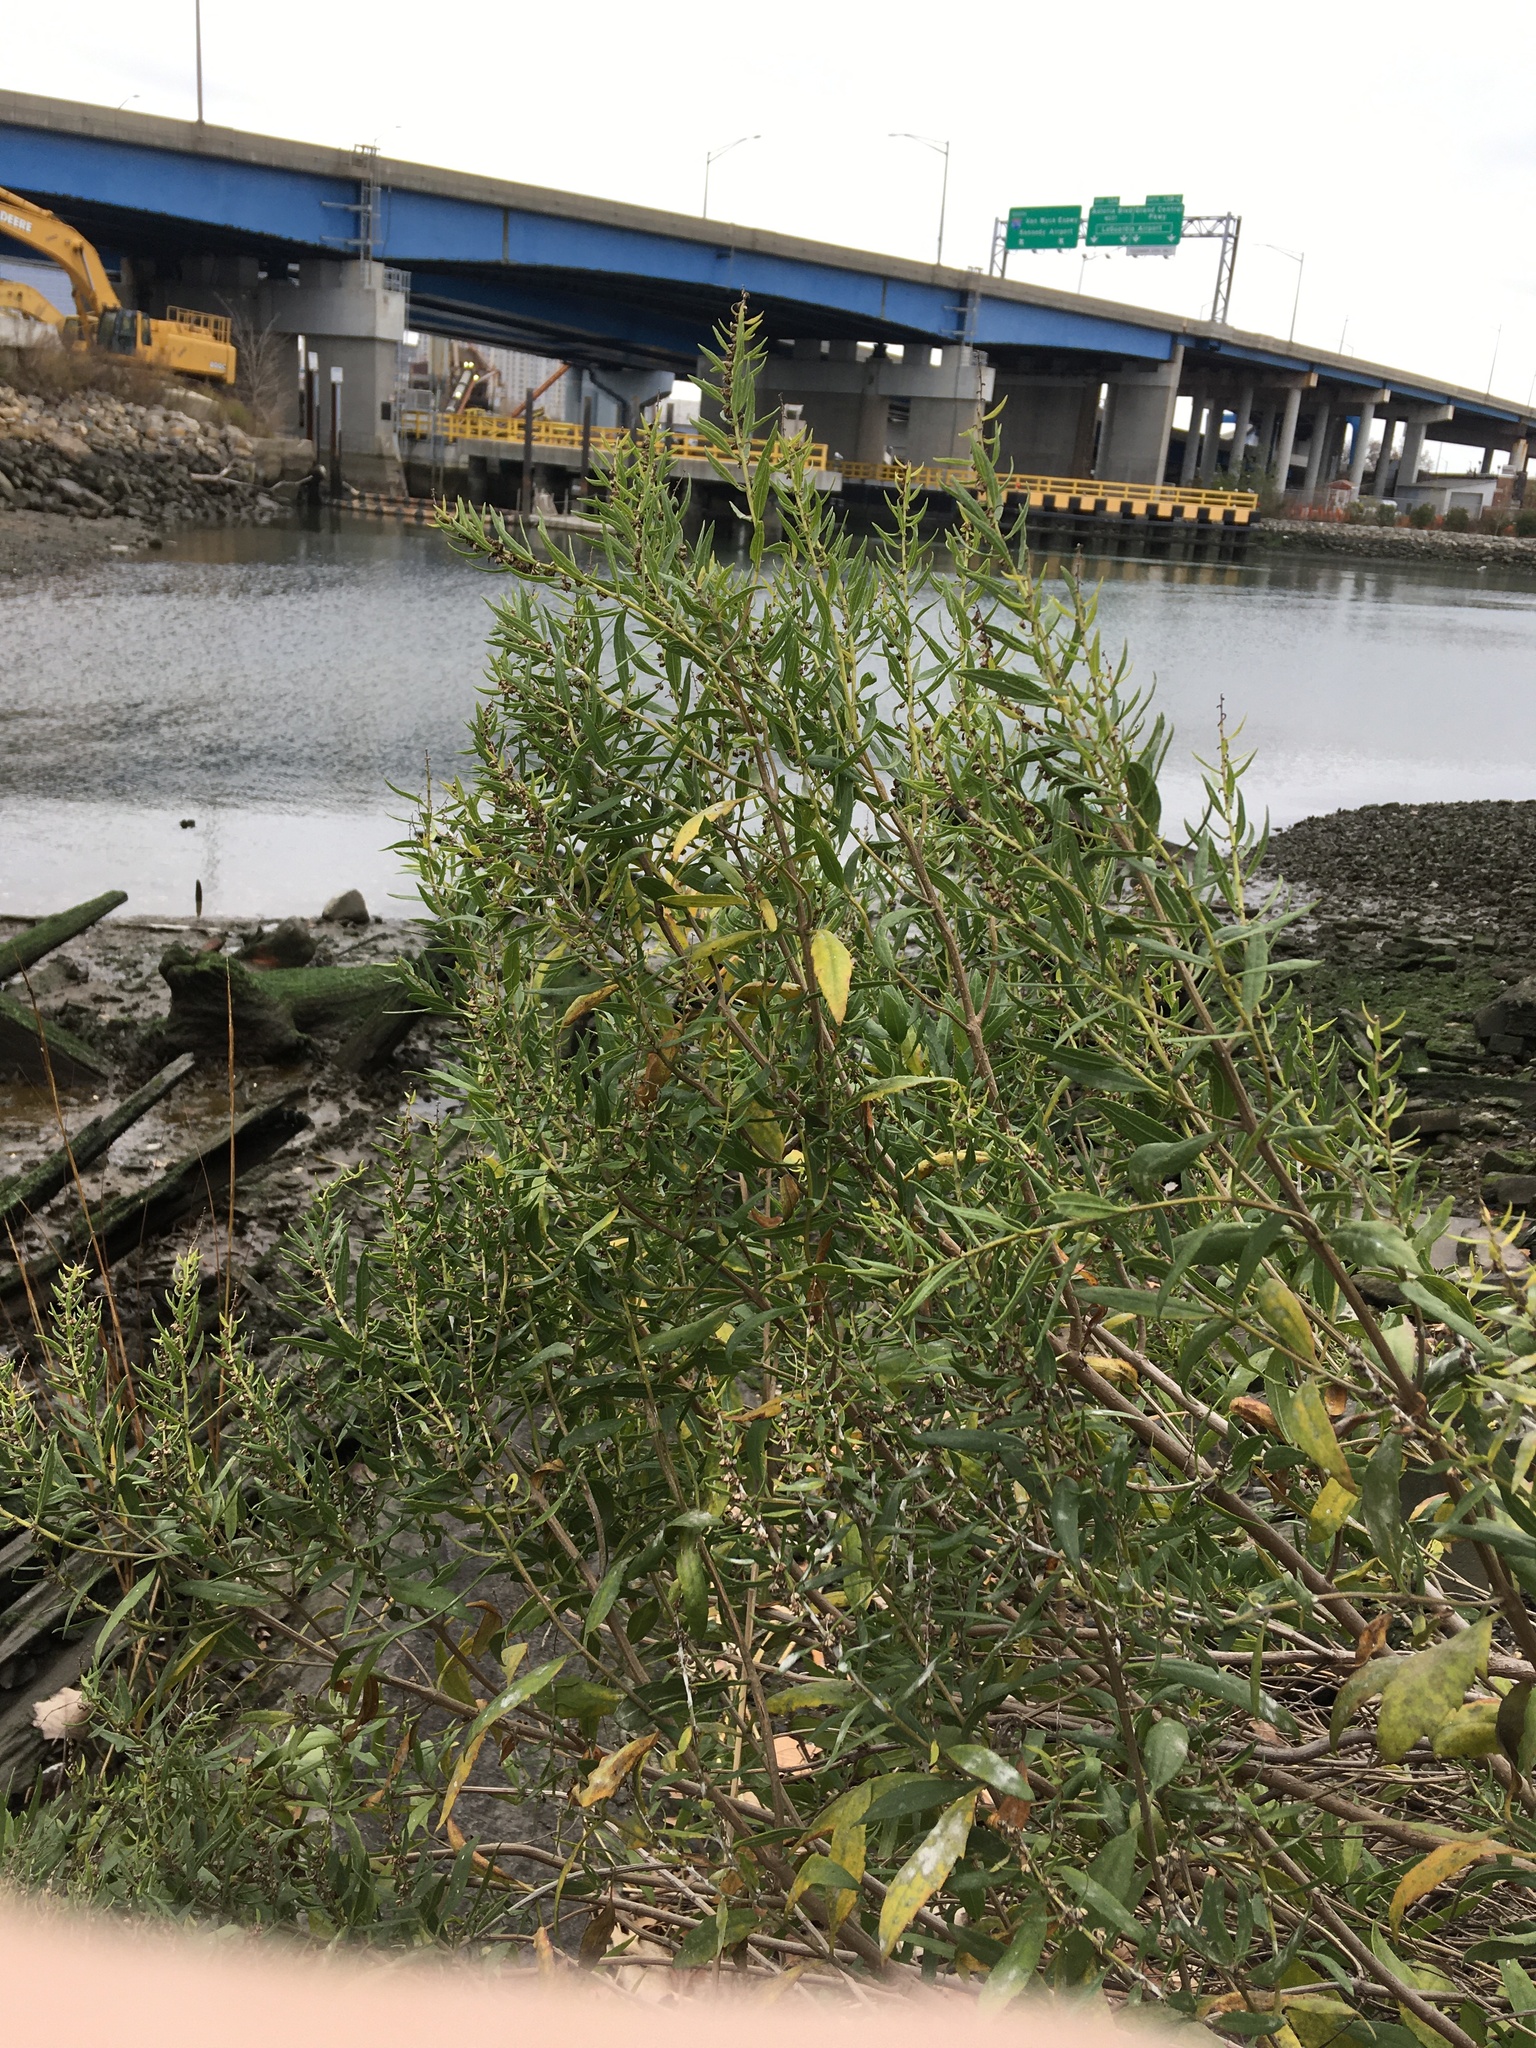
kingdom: Plantae
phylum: Tracheophyta
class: Magnoliopsida
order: Asterales
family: Asteraceae
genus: Iva
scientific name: Iva frutescens
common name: Big-leaved marsh-elder
